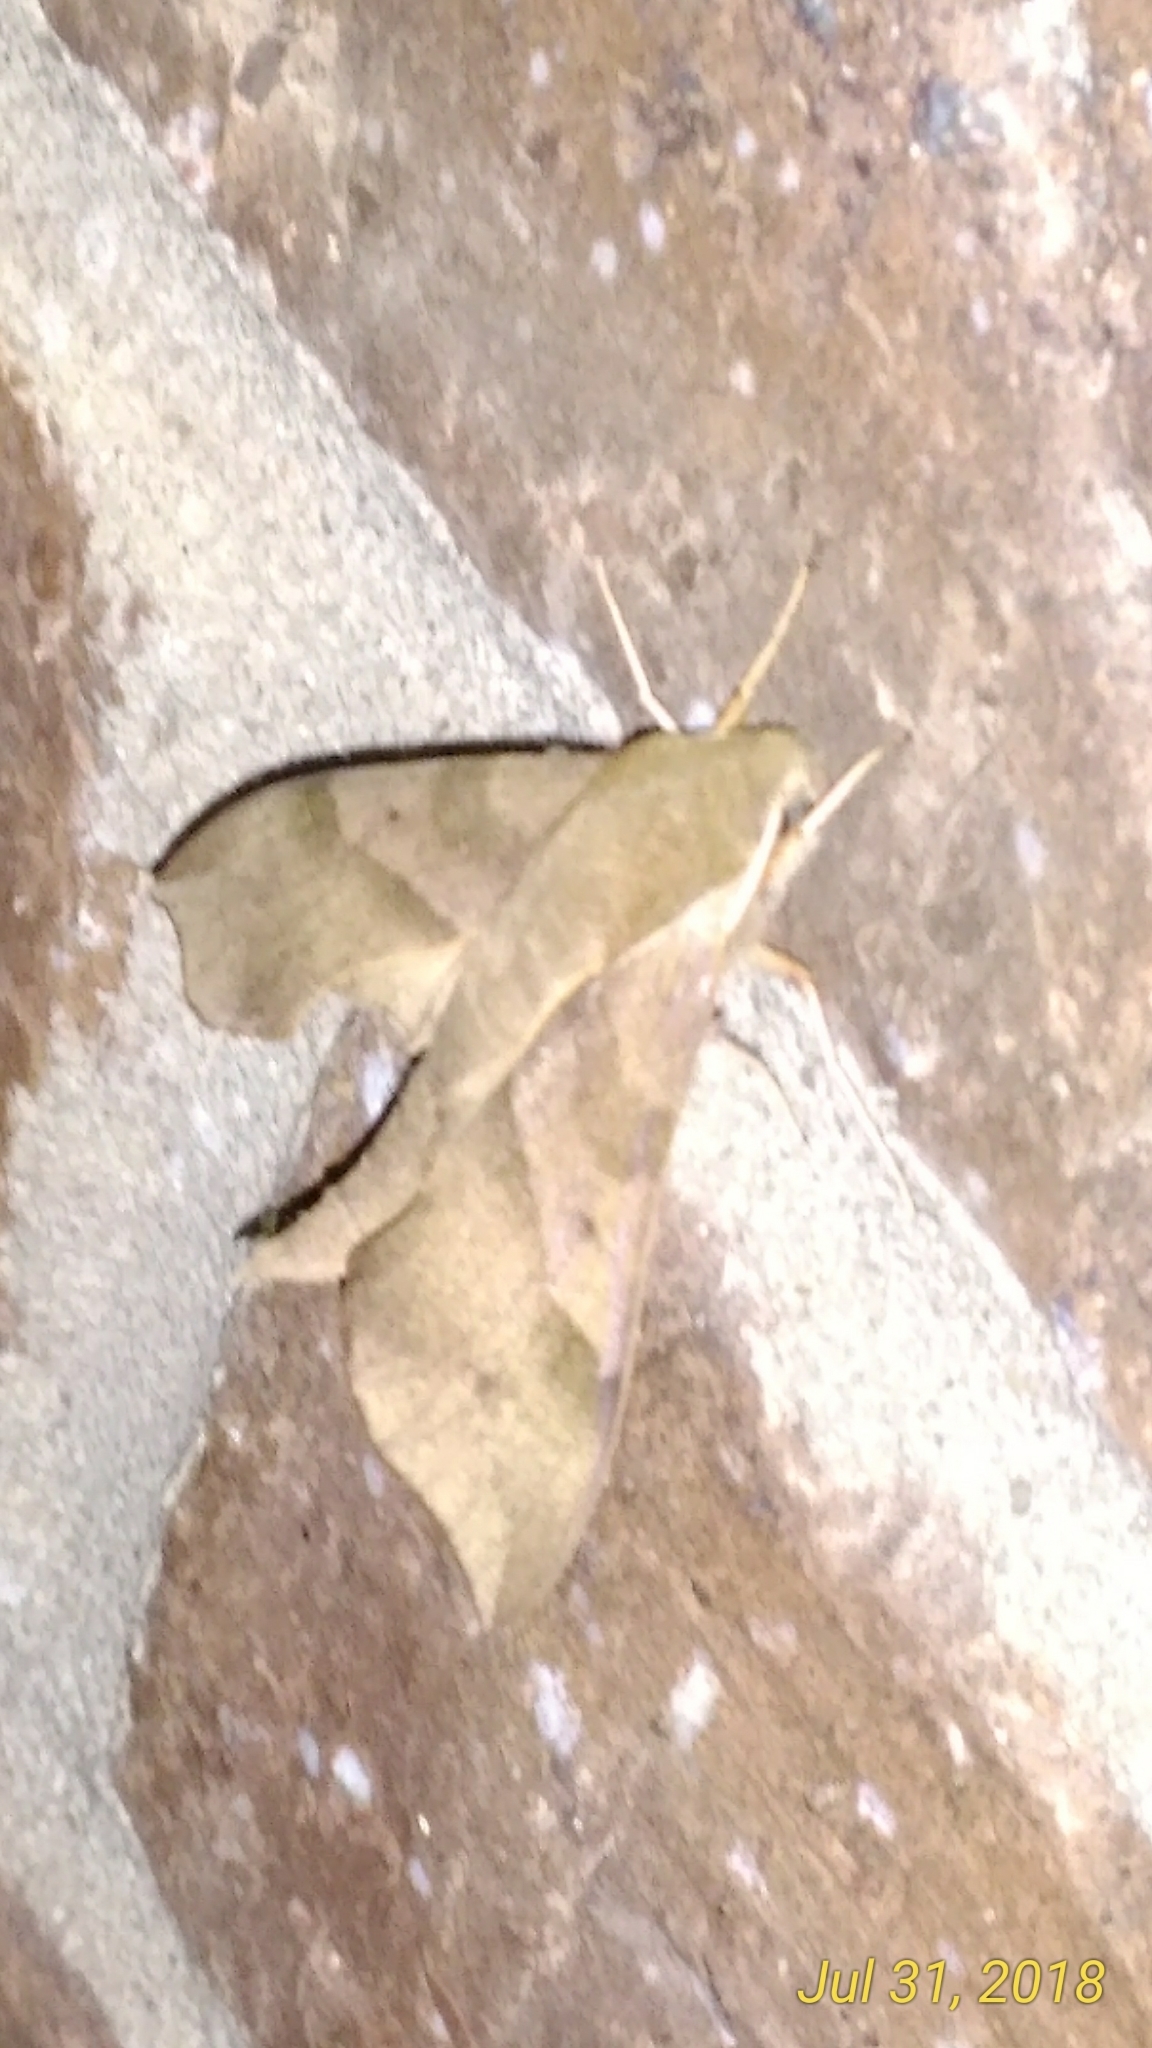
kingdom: Animalia
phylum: Arthropoda
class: Insecta
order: Lepidoptera
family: Sphingidae
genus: Darapsa
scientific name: Darapsa myron
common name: Hog sphinx
